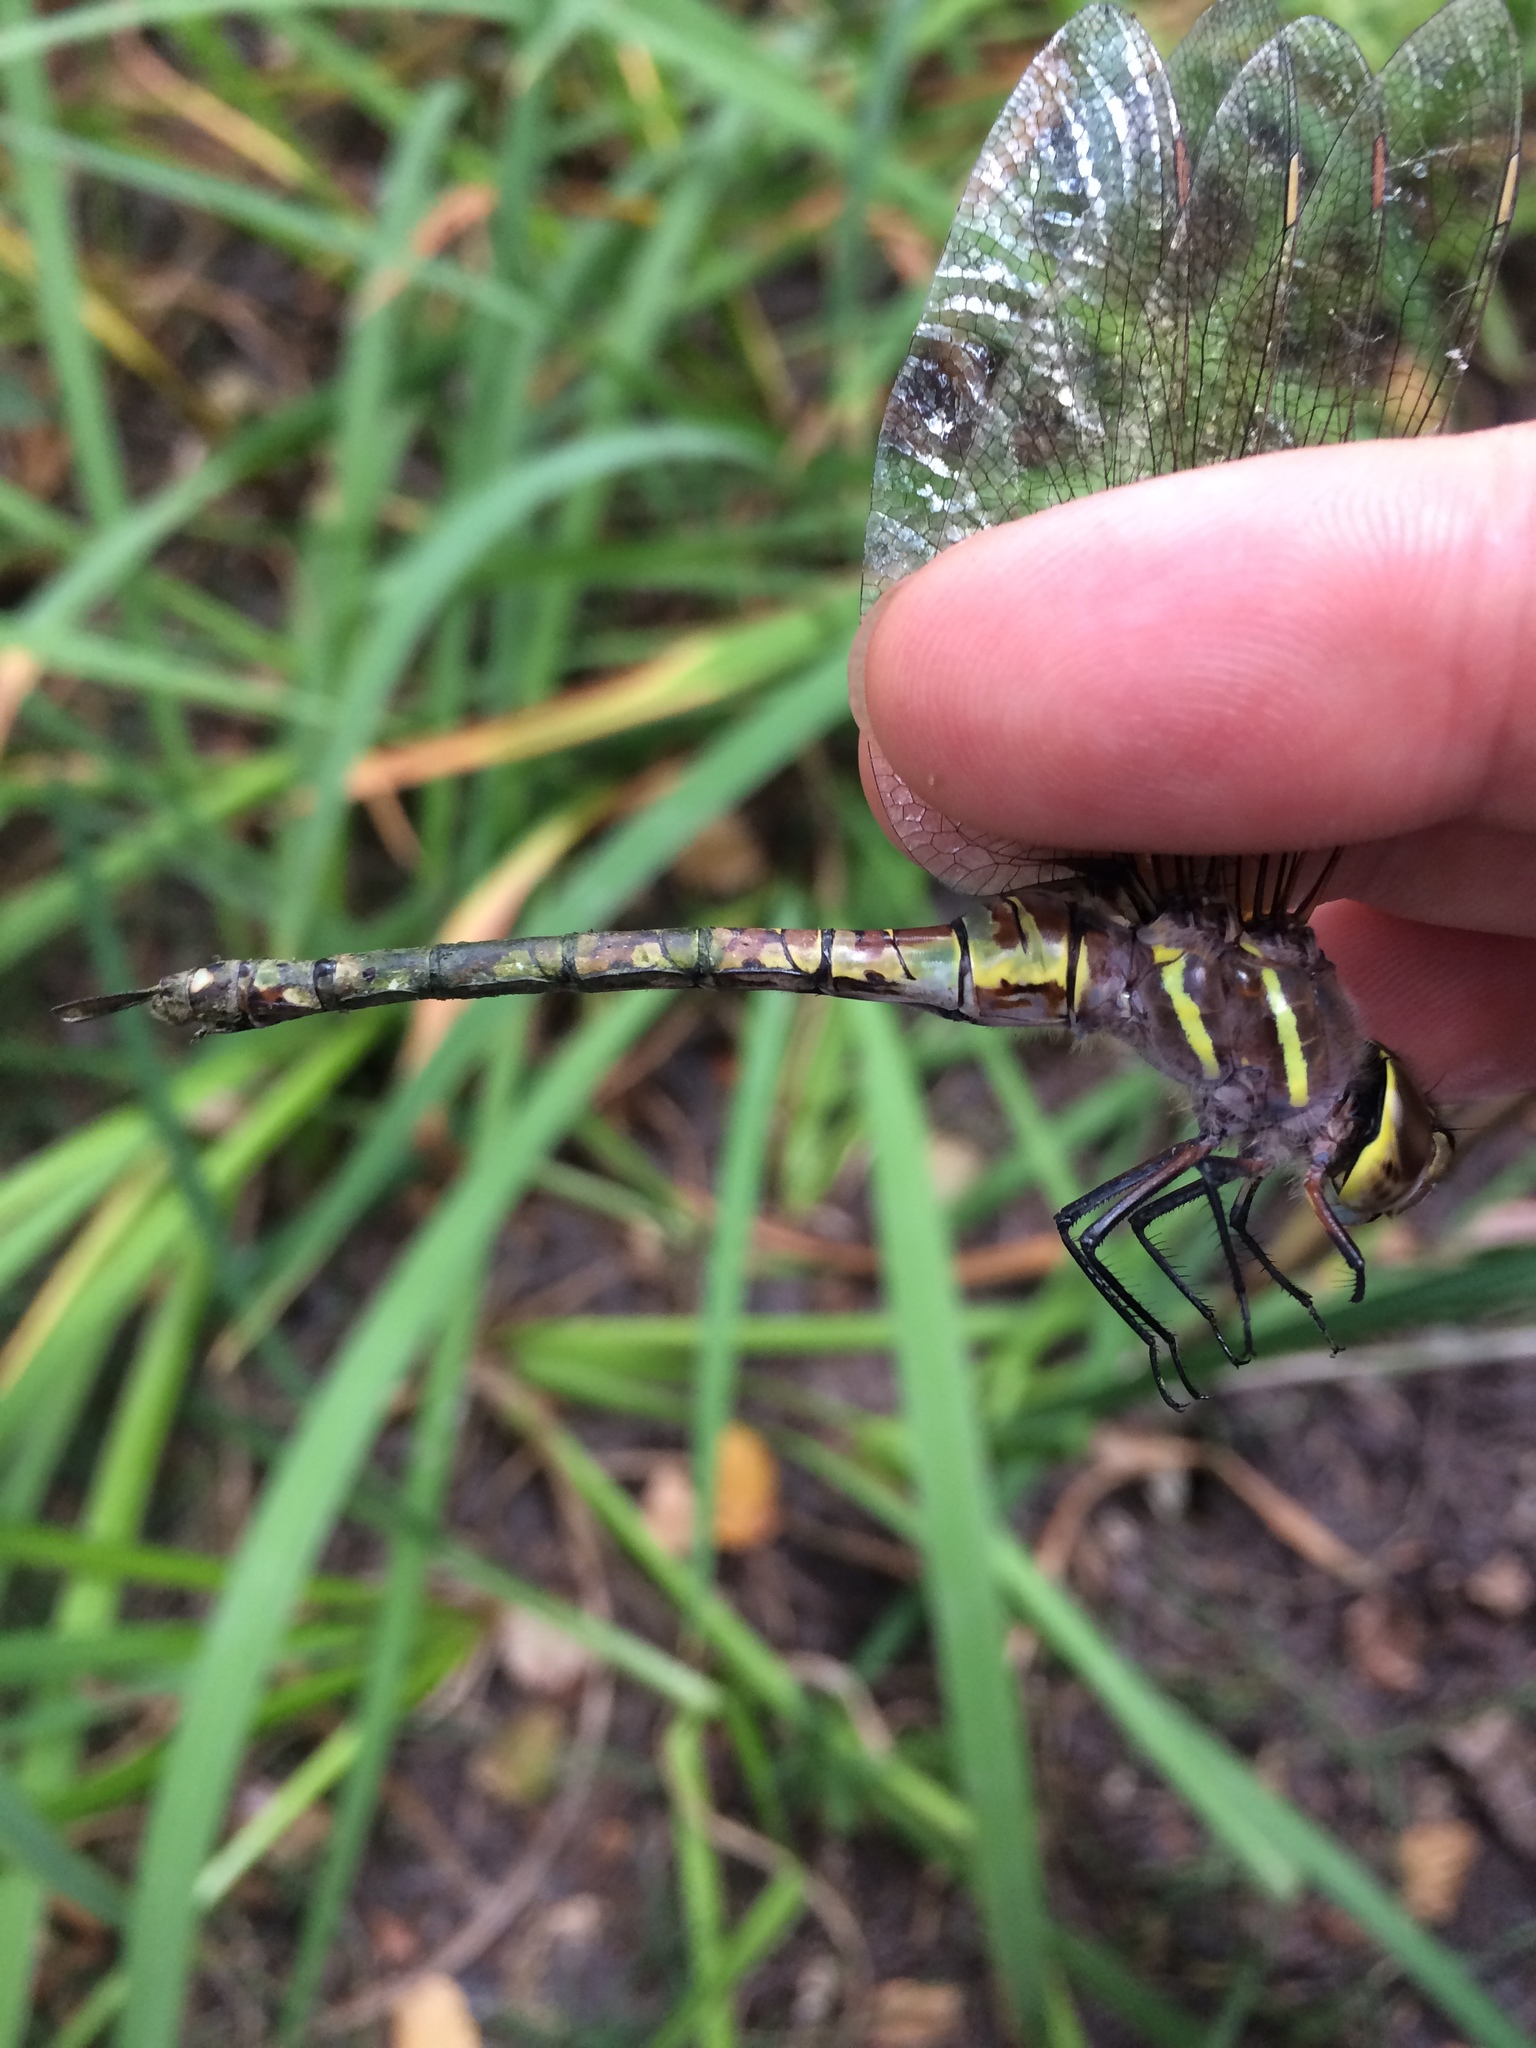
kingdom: Animalia
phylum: Arthropoda
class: Insecta
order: Odonata
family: Aeshnidae
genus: Rhionaeschna
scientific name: Rhionaeschna multicolor
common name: Blue-eyed darner
